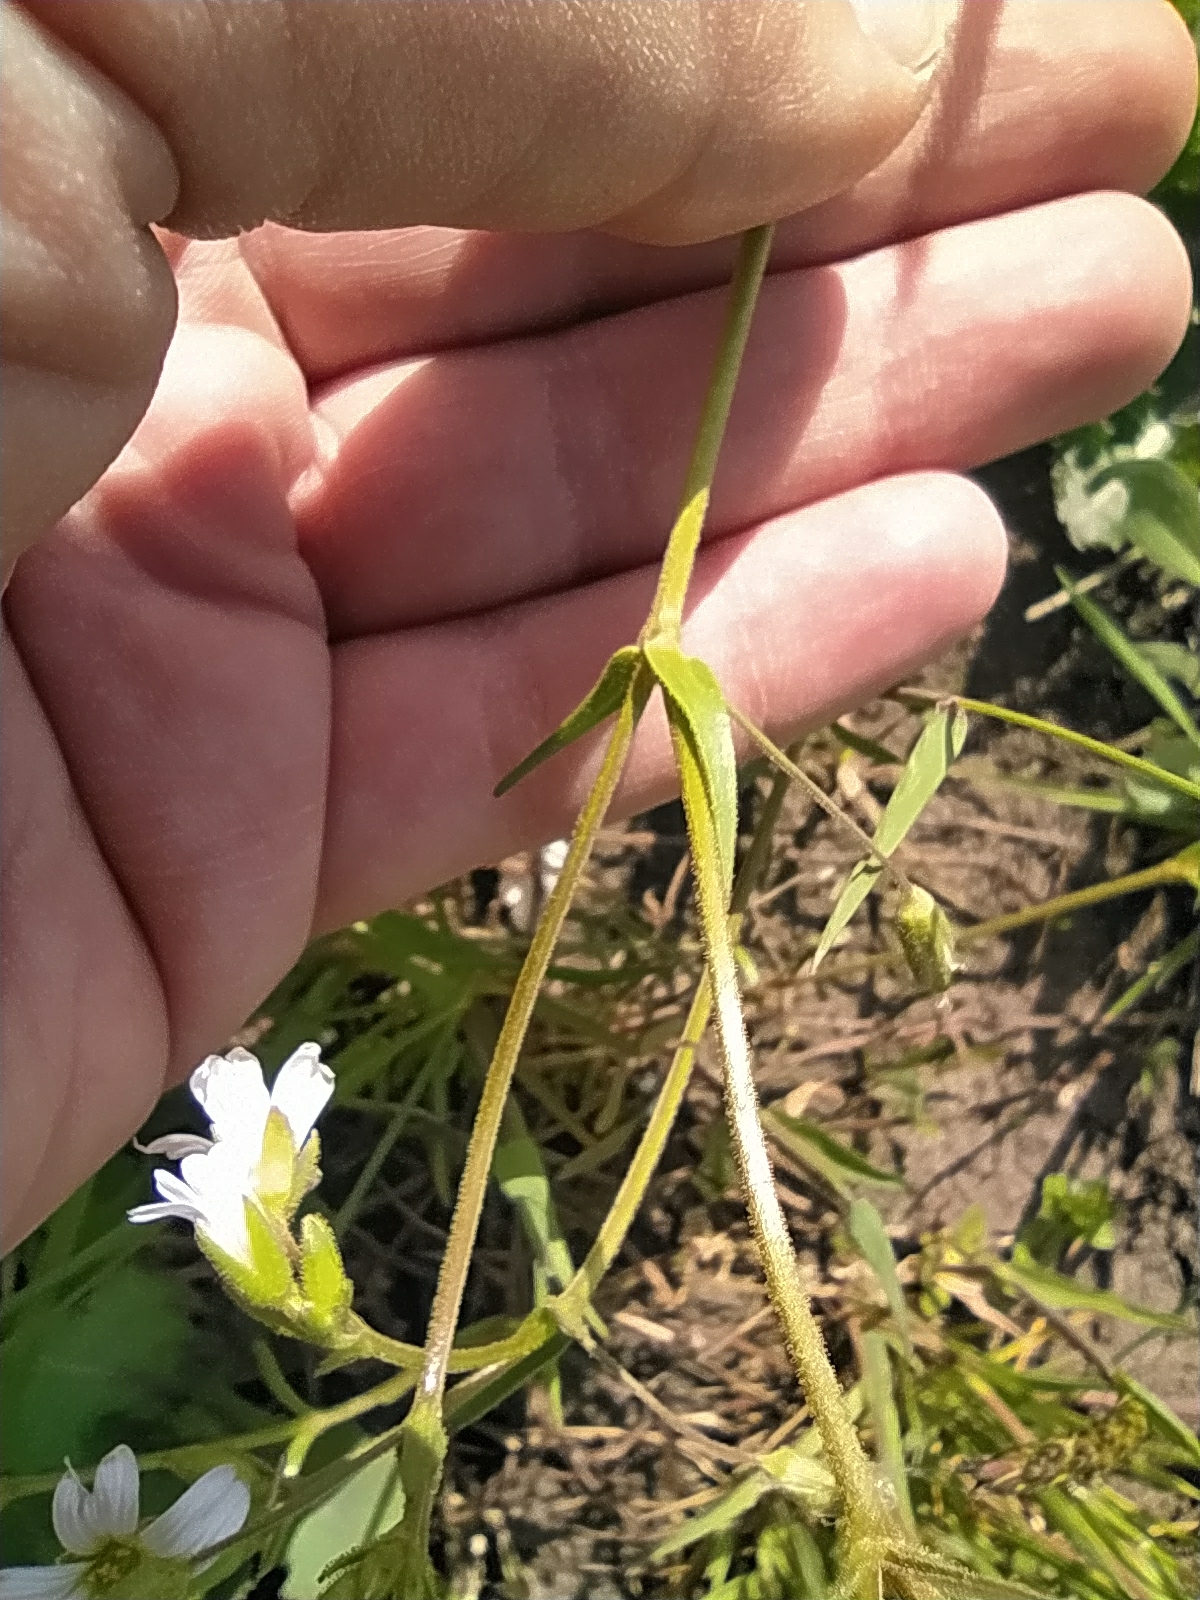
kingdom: Plantae
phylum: Tracheophyta
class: Magnoliopsida
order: Caryophyllales
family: Caryophyllaceae
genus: Dichodon
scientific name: Dichodon viscidum
